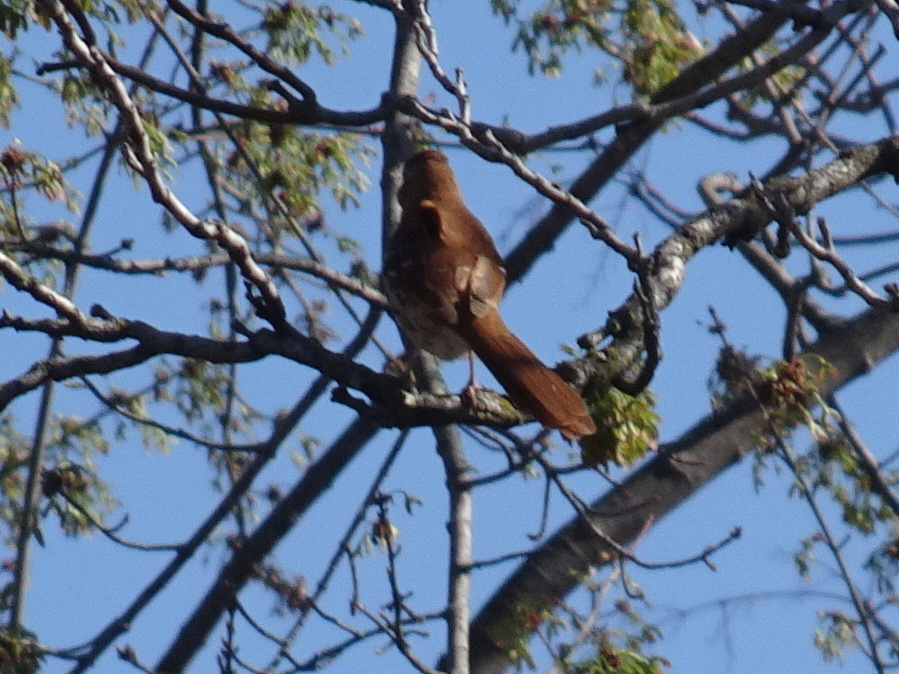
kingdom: Animalia
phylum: Chordata
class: Aves
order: Passeriformes
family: Mimidae
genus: Toxostoma
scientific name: Toxostoma rufum
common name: Brown thrasher
